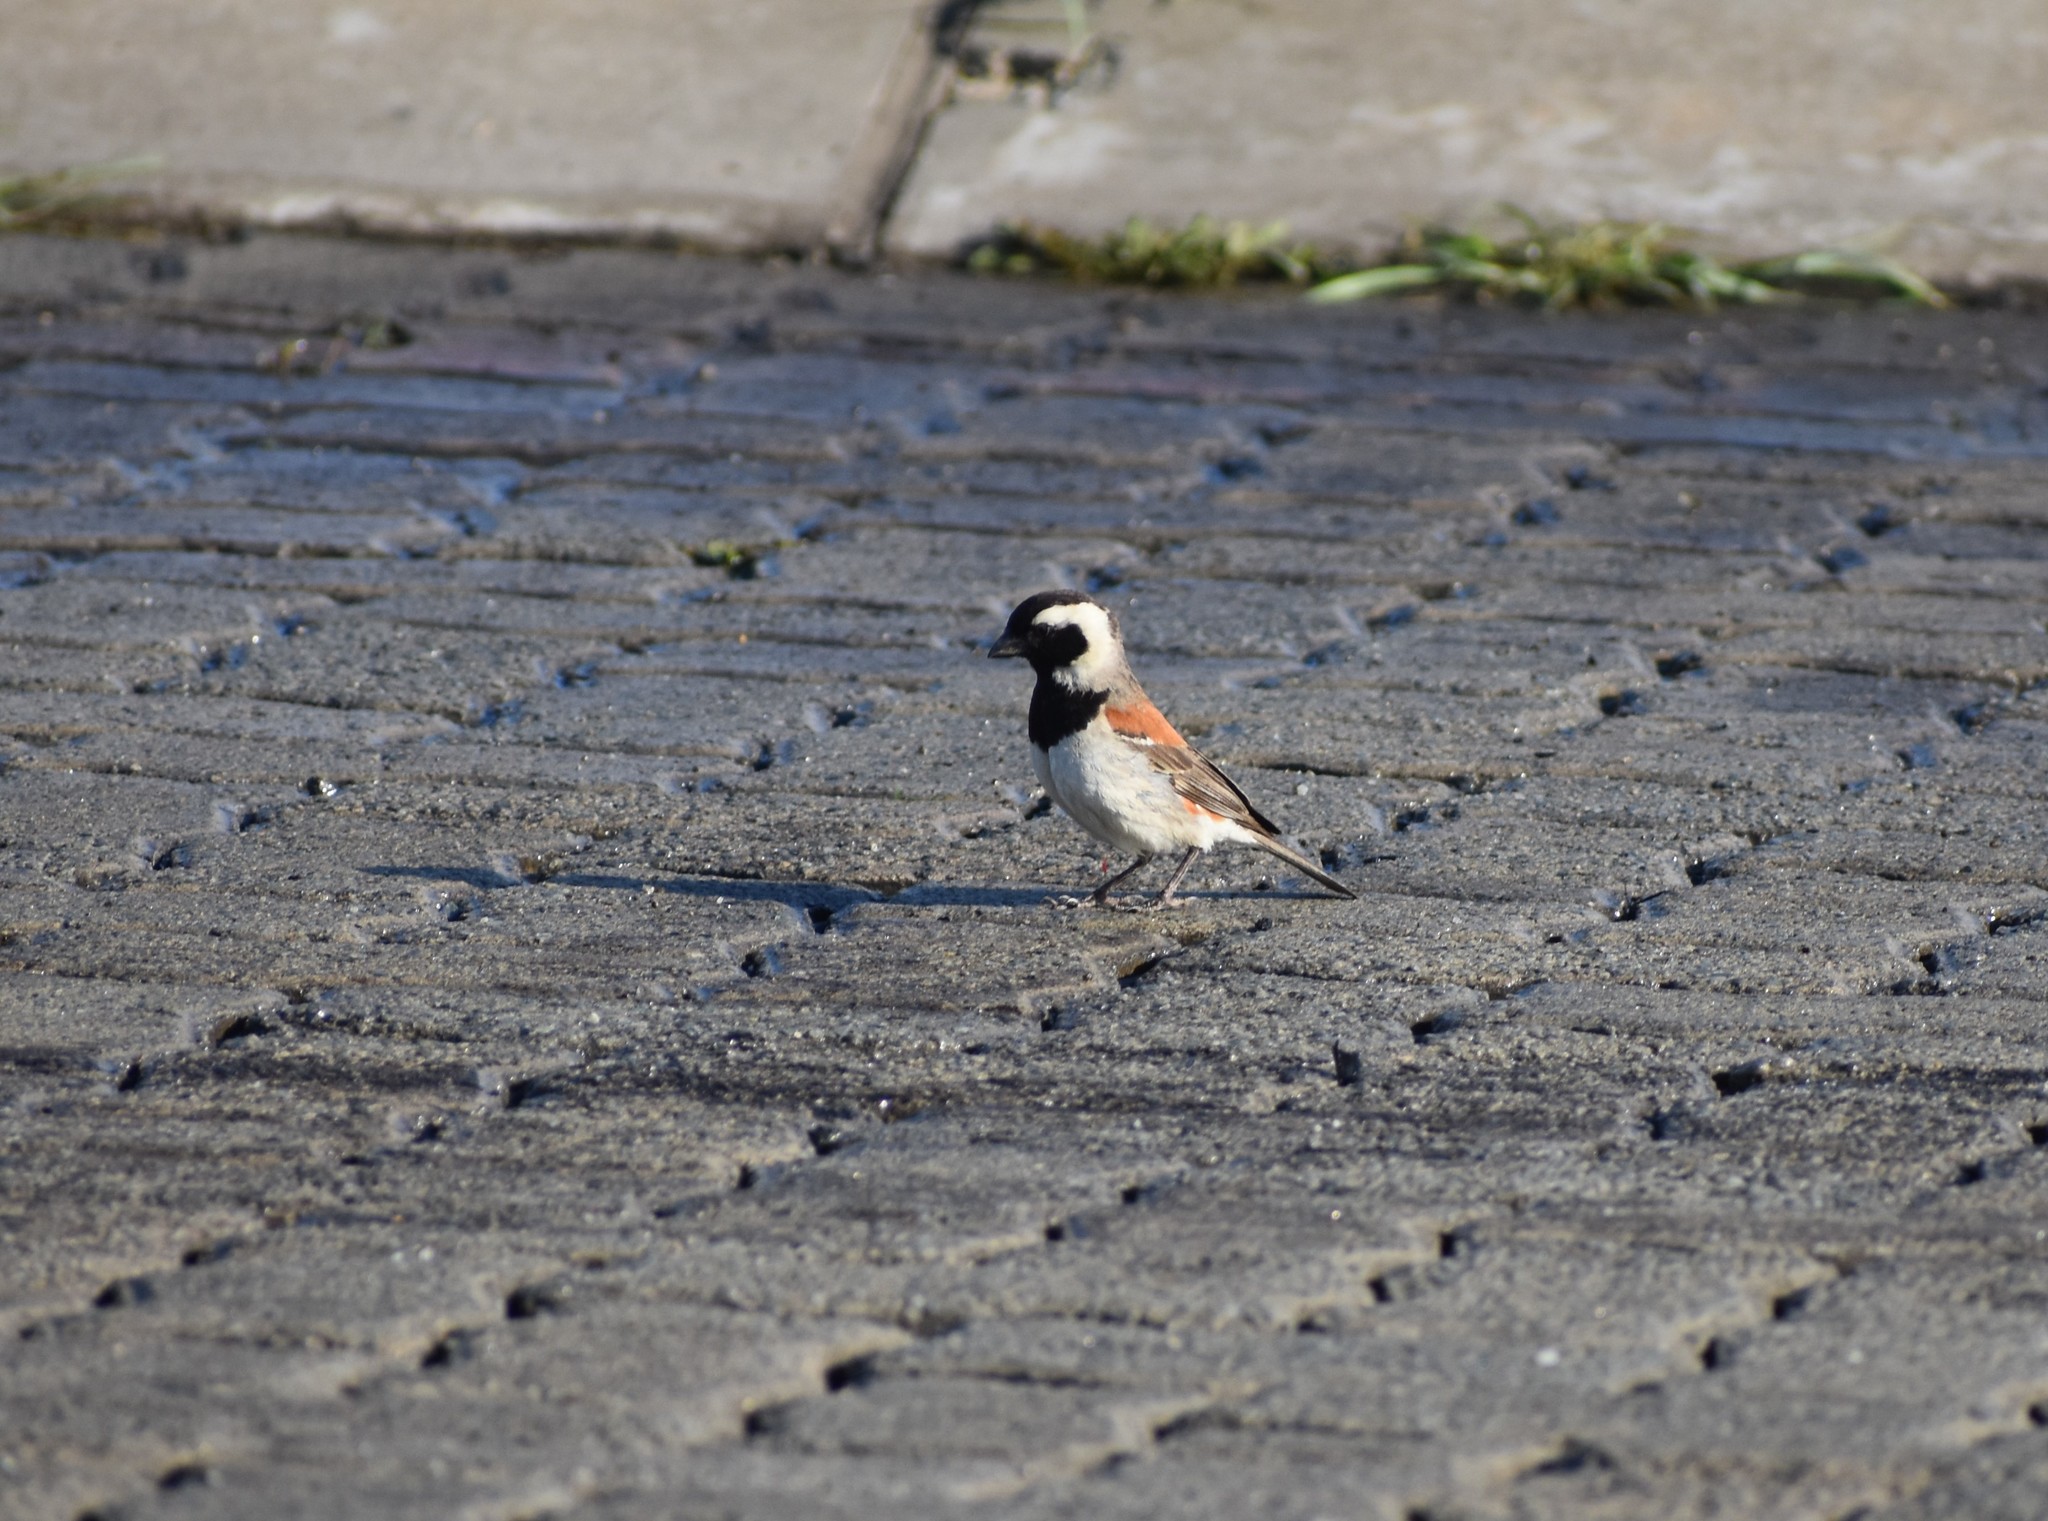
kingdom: Animalia
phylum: Chordata
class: Aves
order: Passeriformes
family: Passeridae
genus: Passer
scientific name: Passer melanurus
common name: Cape sparrow
